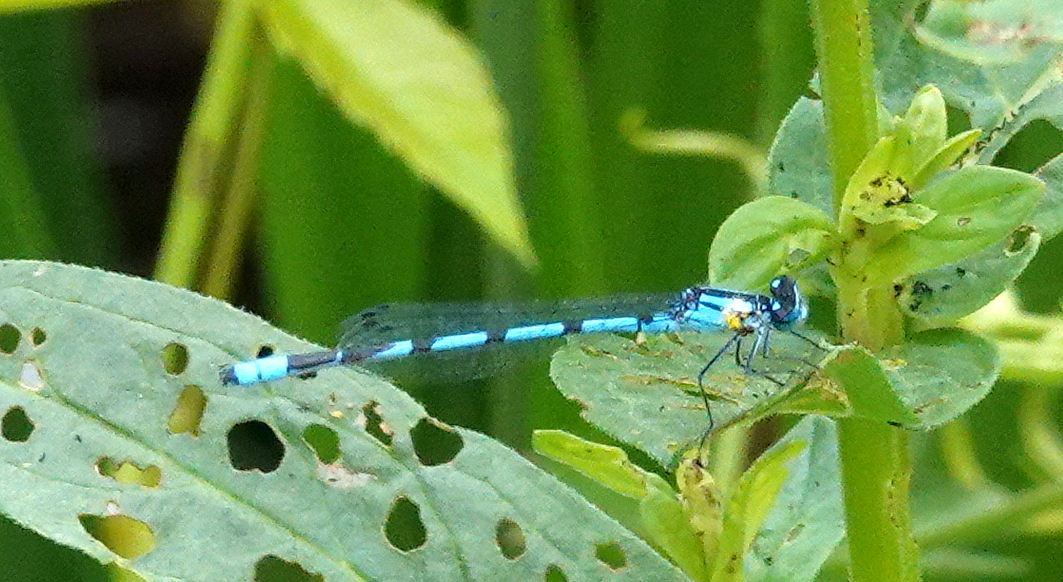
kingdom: Animalia
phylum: Arthropoda
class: Insecta
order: Odonata
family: Coenagrionidae
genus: Enallagma
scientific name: Enallagma
